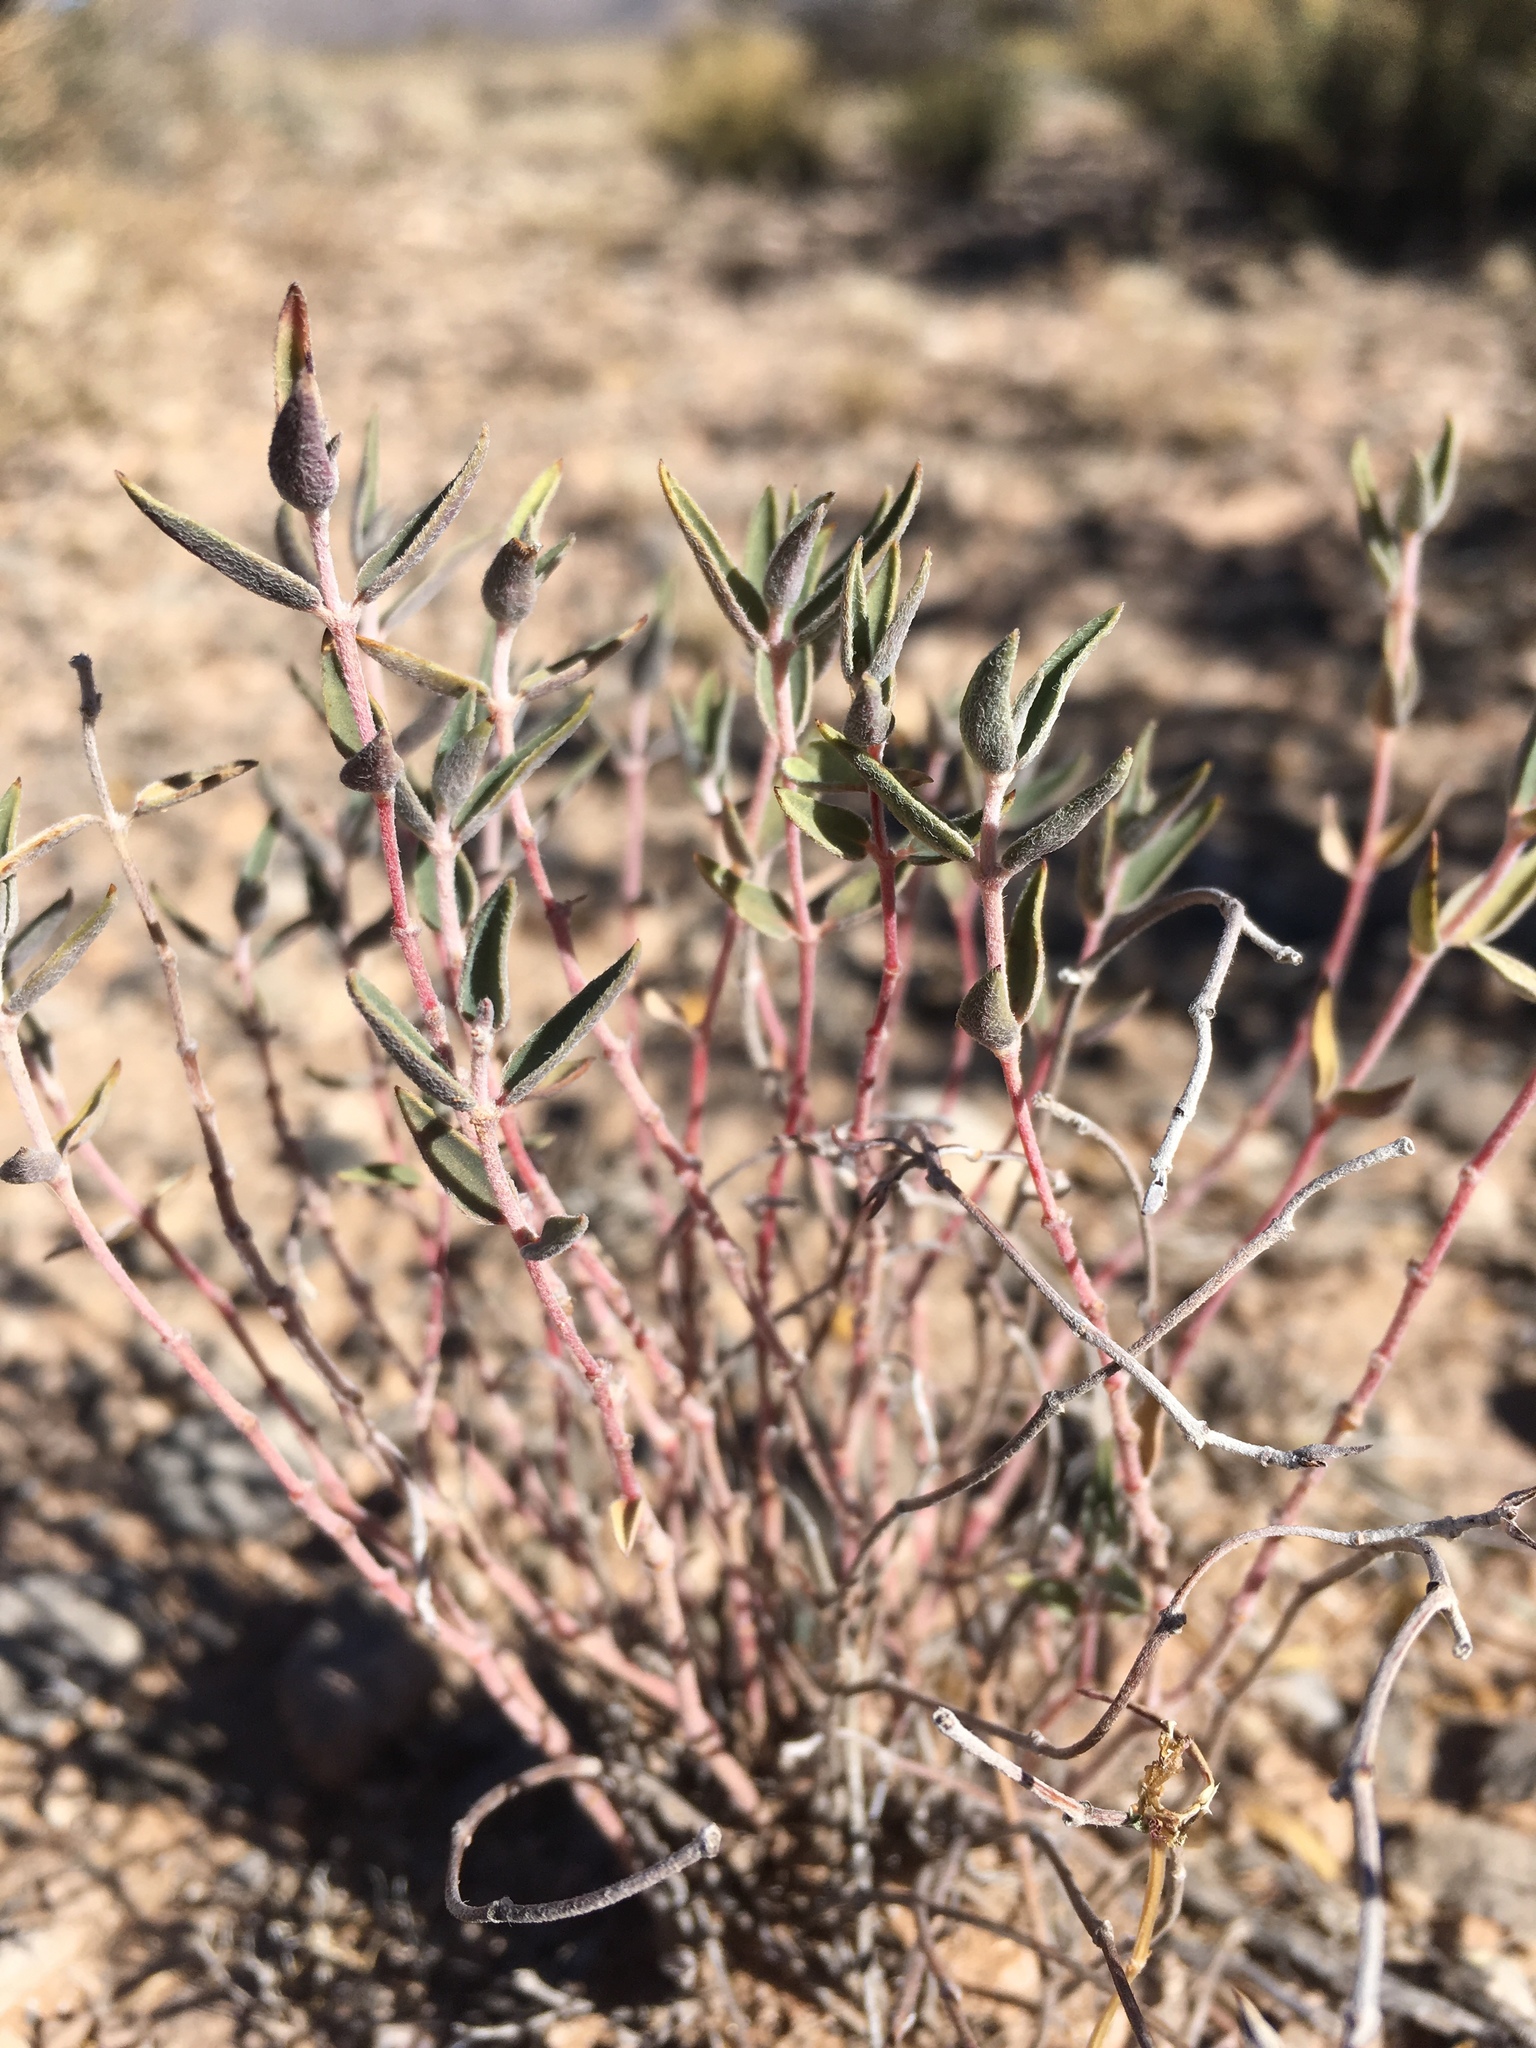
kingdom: Plantae
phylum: Tracheophyta
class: Magnoliopsida
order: Malpighiales
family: Euphorbiaceae
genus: Euphorbia
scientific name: Euphorbia acuta
